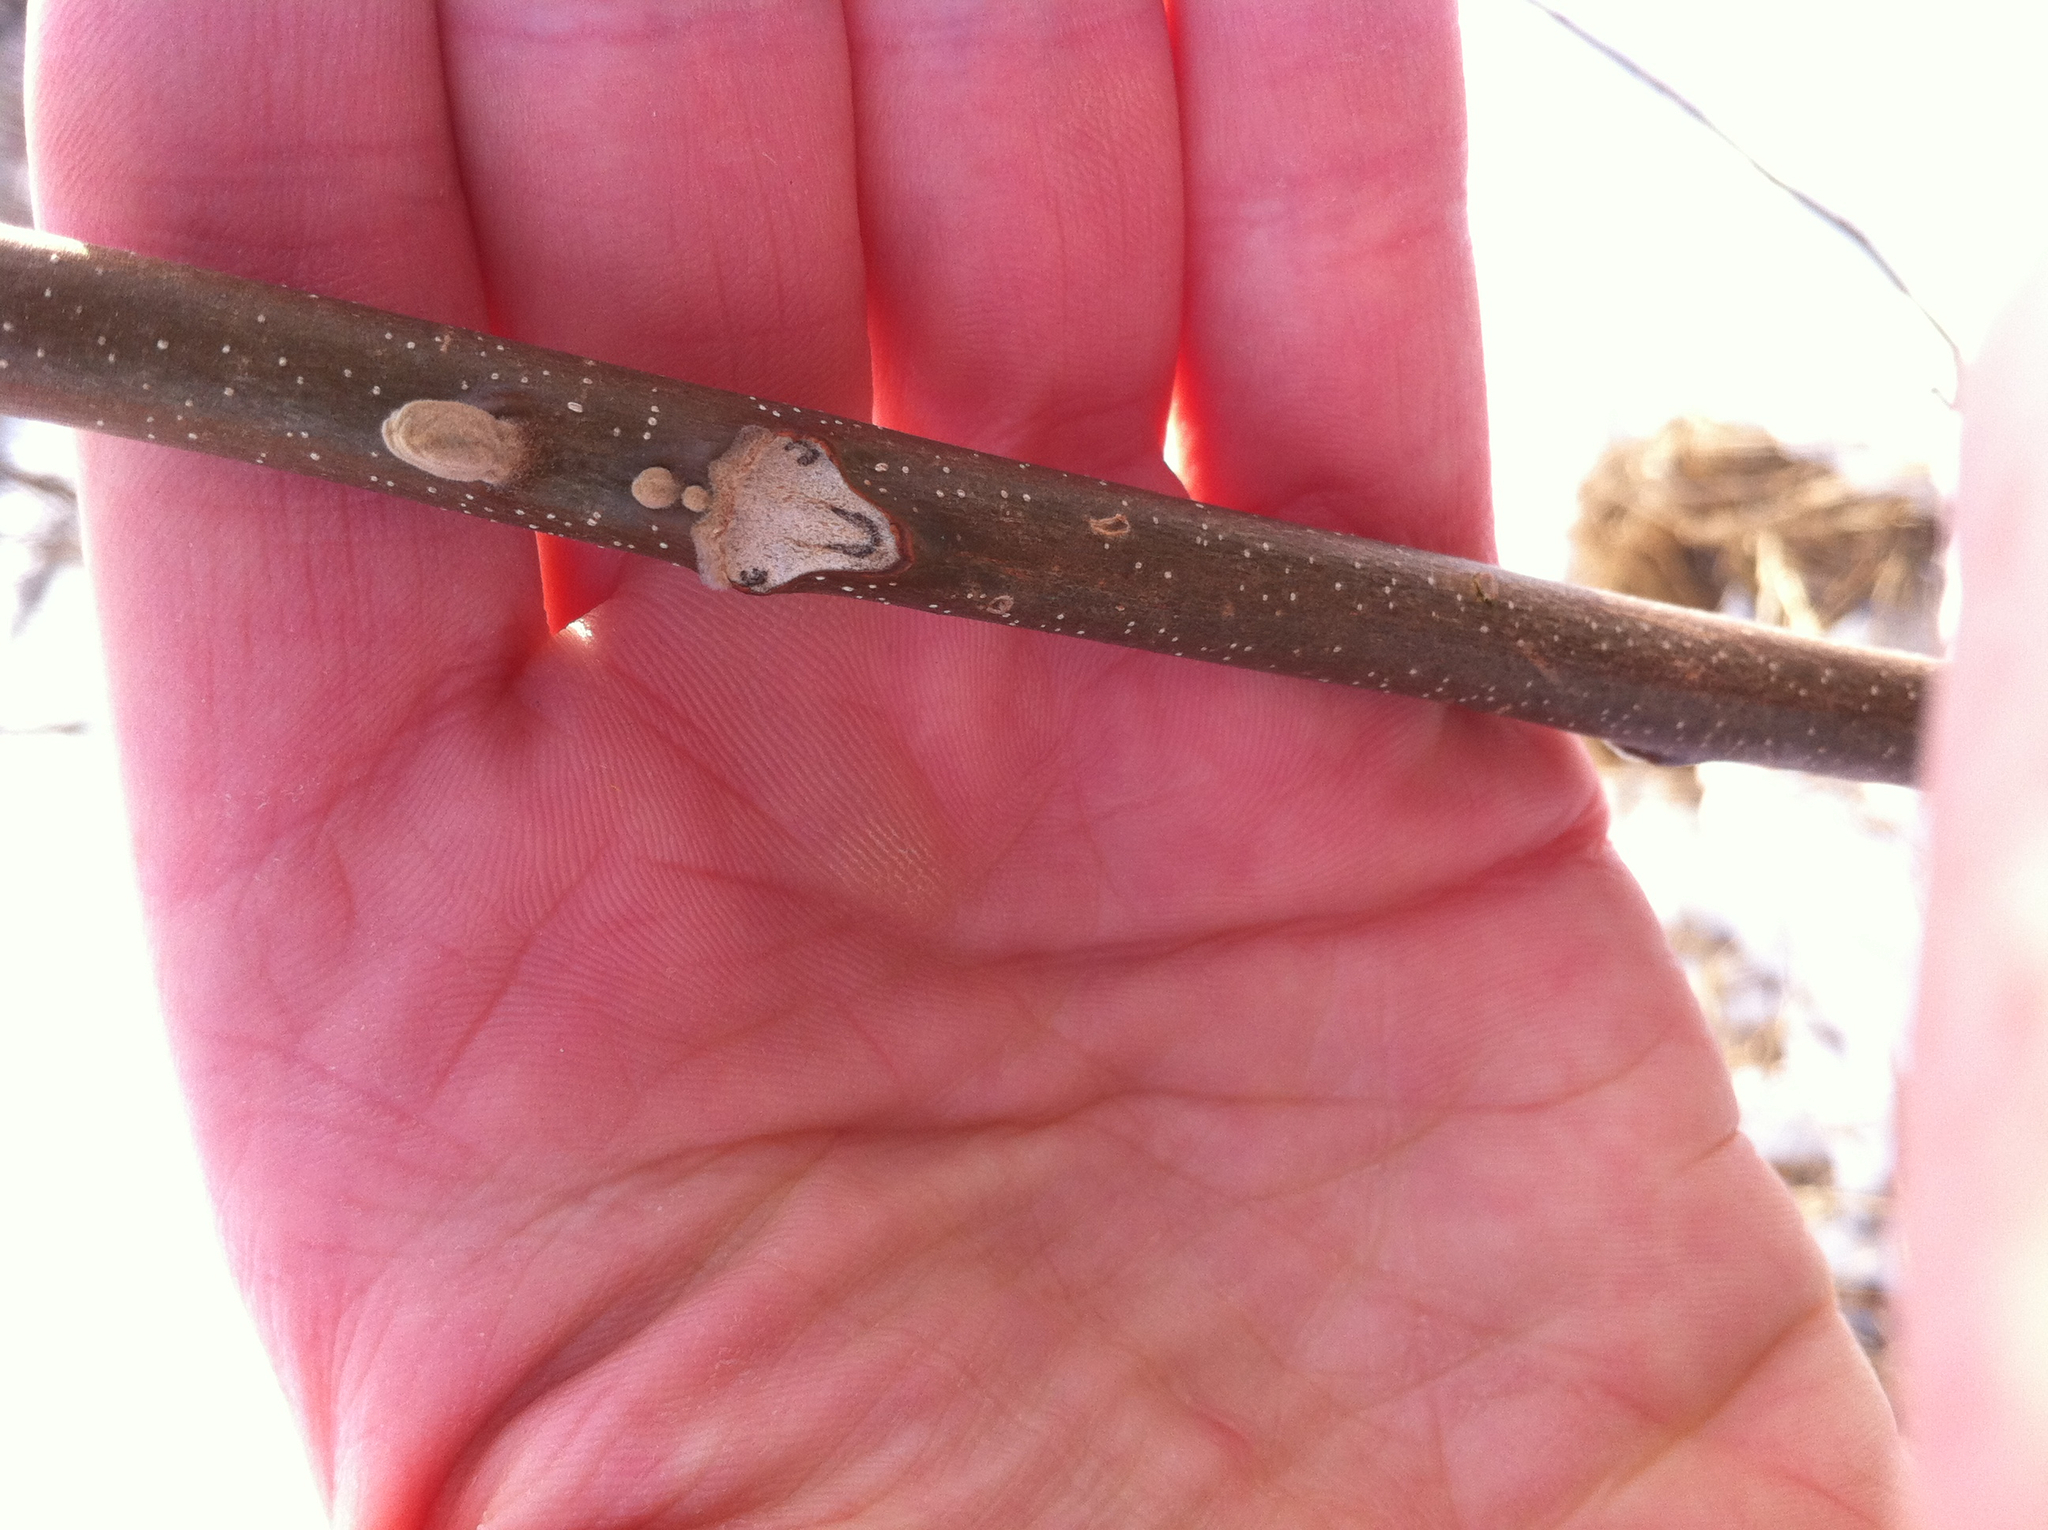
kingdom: Plantae
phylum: Tracheophyta
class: Magnoliopsida
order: Fagales
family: Juglandaceae
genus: Juglans
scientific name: Juglans cinerea
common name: Butternut
